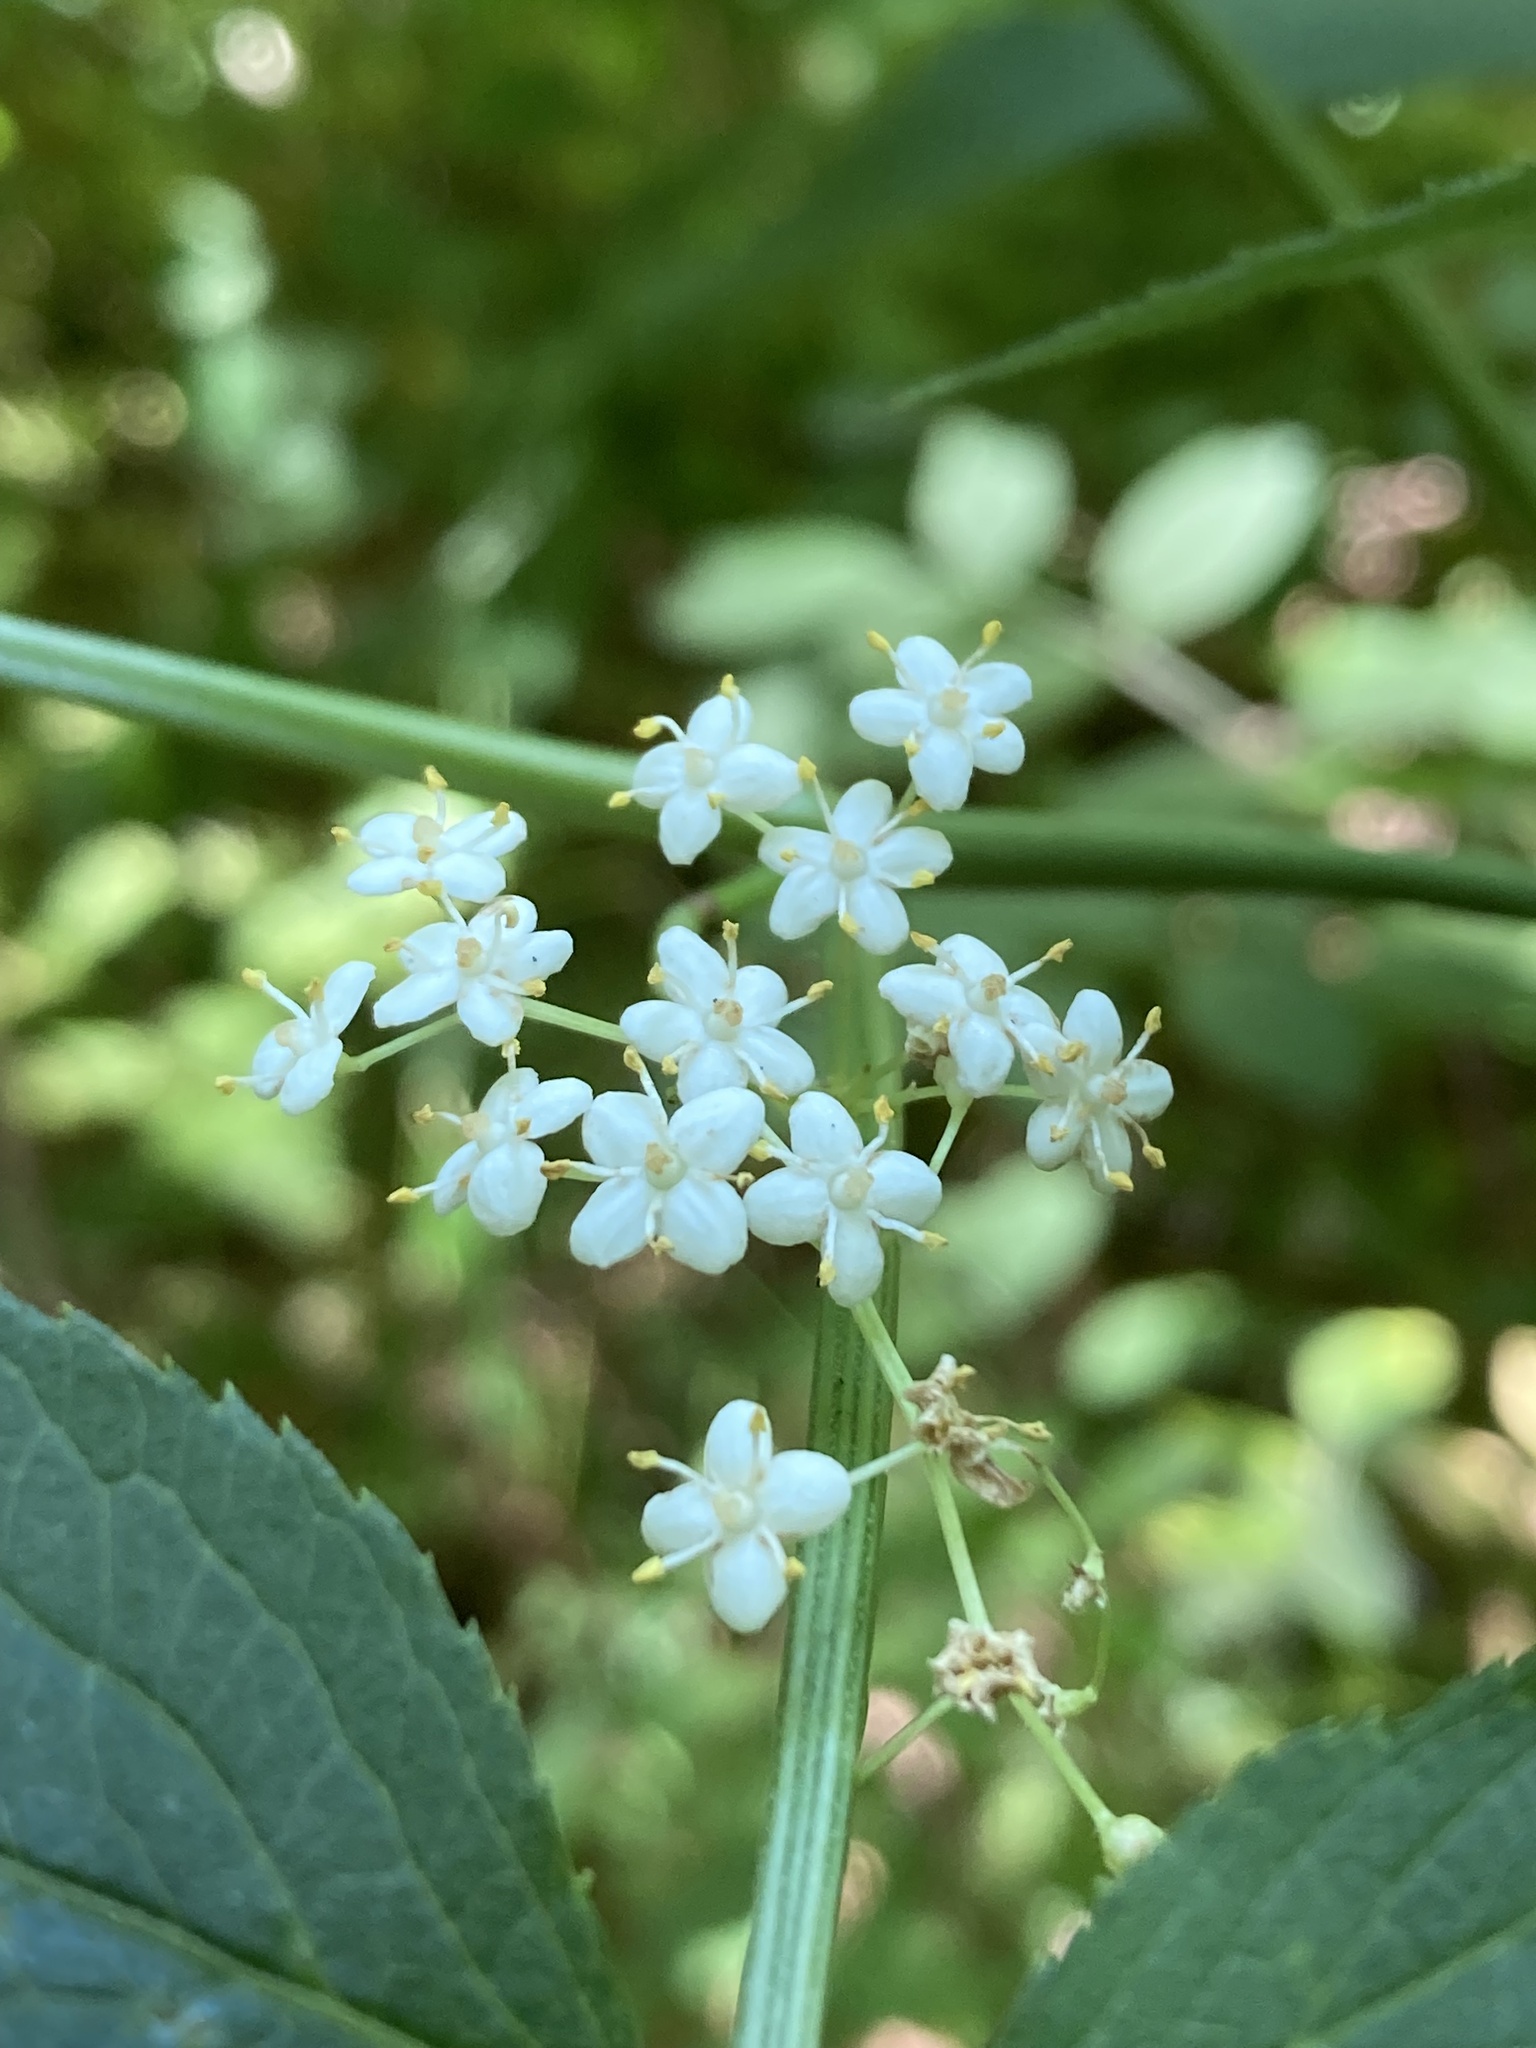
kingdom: Plantae
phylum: Tracheophyta
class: Magnoliopsida
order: Dipsacales
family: Viburnaceae
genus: Sambucus
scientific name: Sambucus canadensis
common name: American elder
